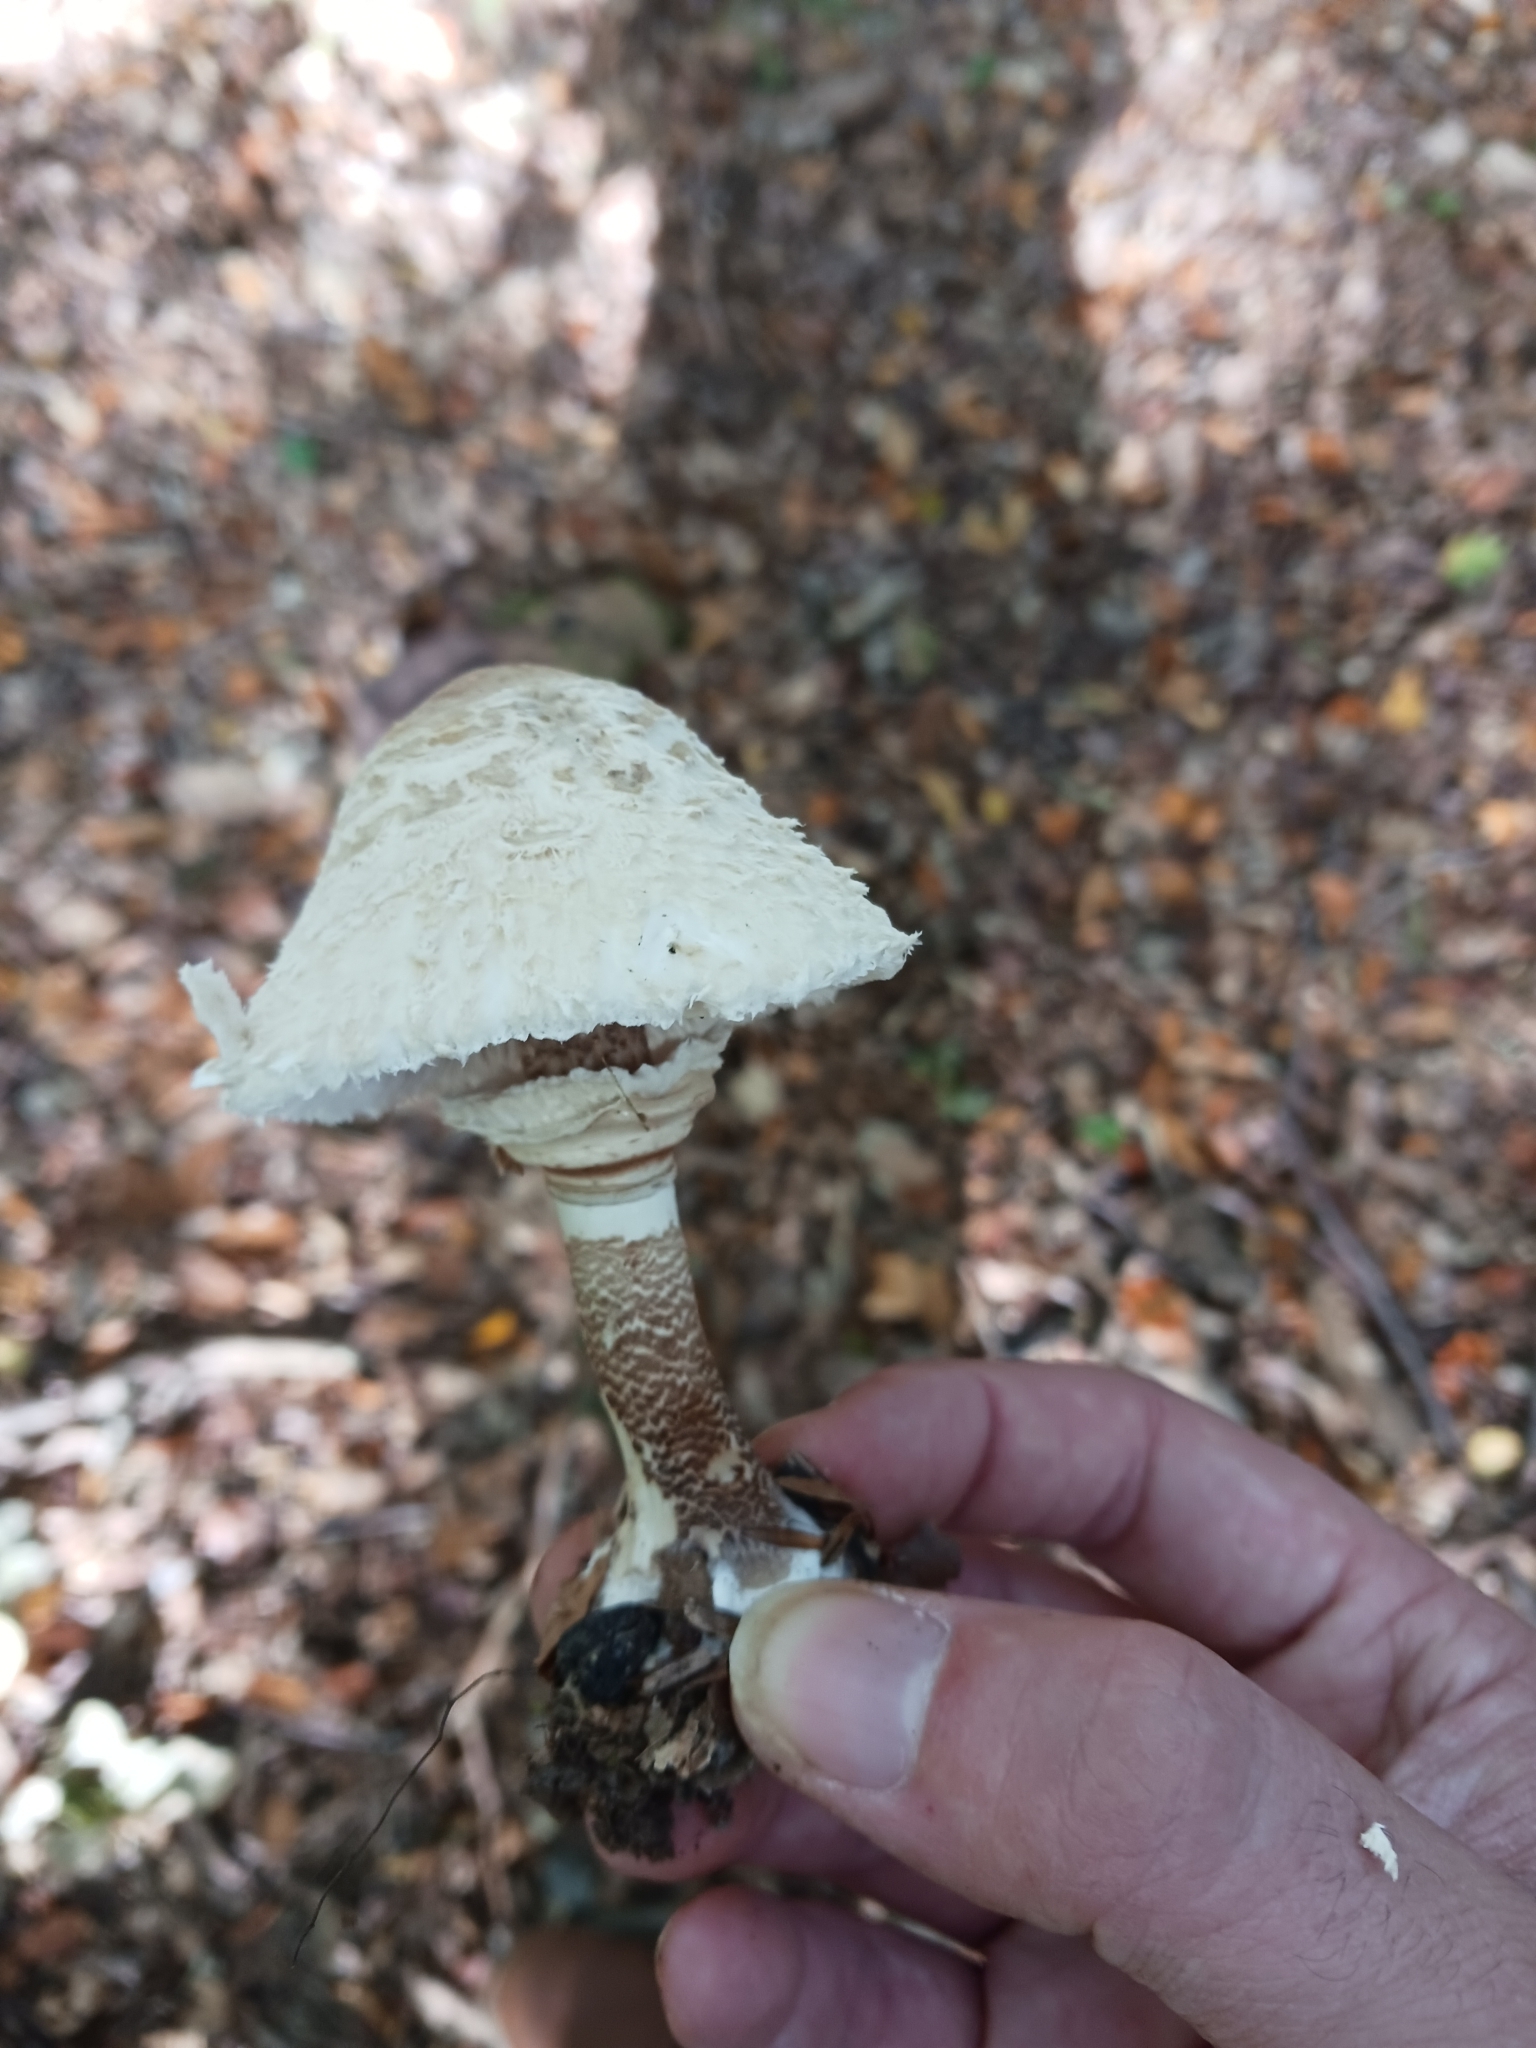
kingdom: Fungi
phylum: Basidiomycota
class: Agaricomycetes
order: Agaricales
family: Agaricaceae
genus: Macrolepiota
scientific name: Macrolepiota procera
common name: Parasol
